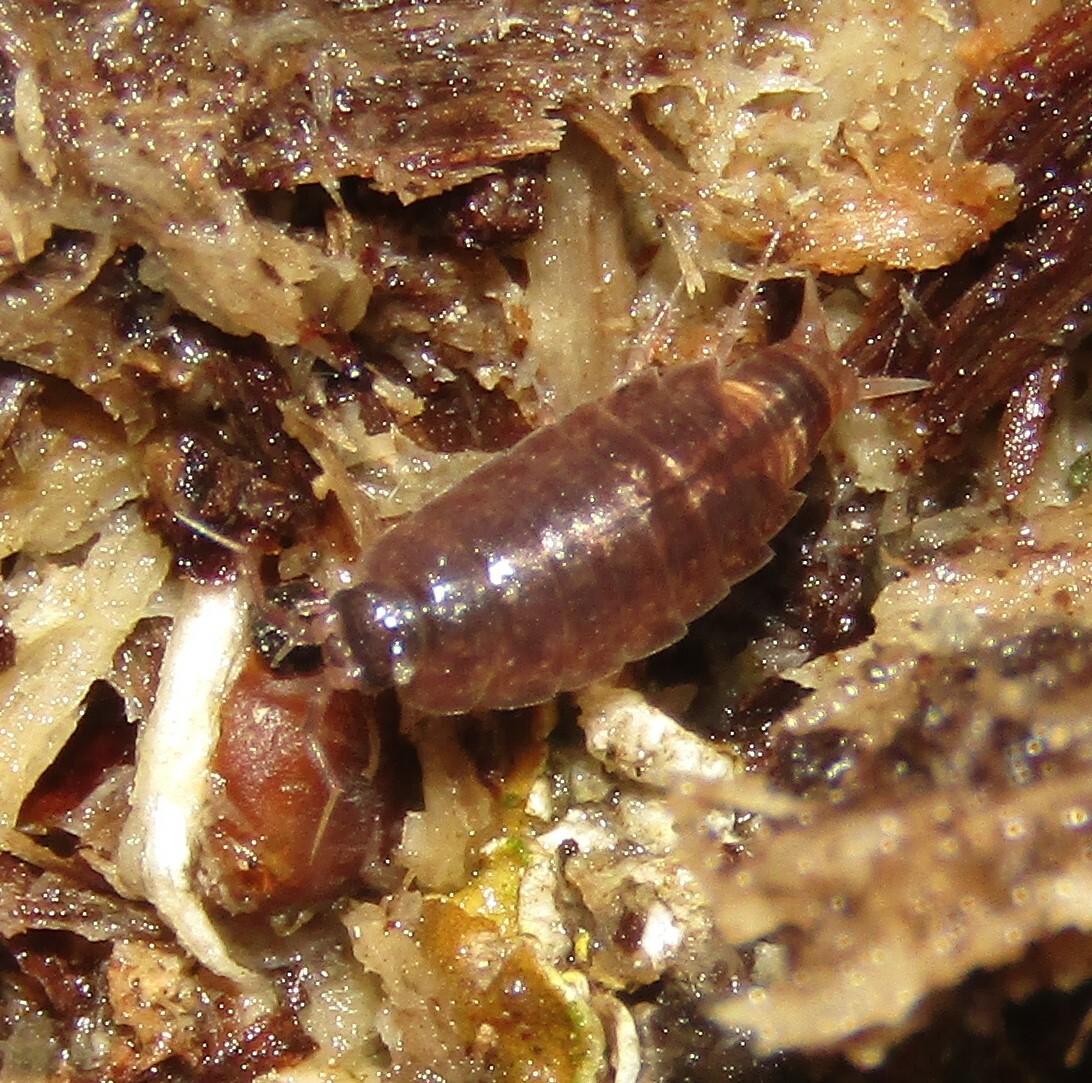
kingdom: Animalia
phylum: Arthropoda
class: Malacostraca
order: Isopoda
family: Trichoniscidae
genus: Hyloniscus
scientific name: Hyloniscus riparius
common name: Isopod
